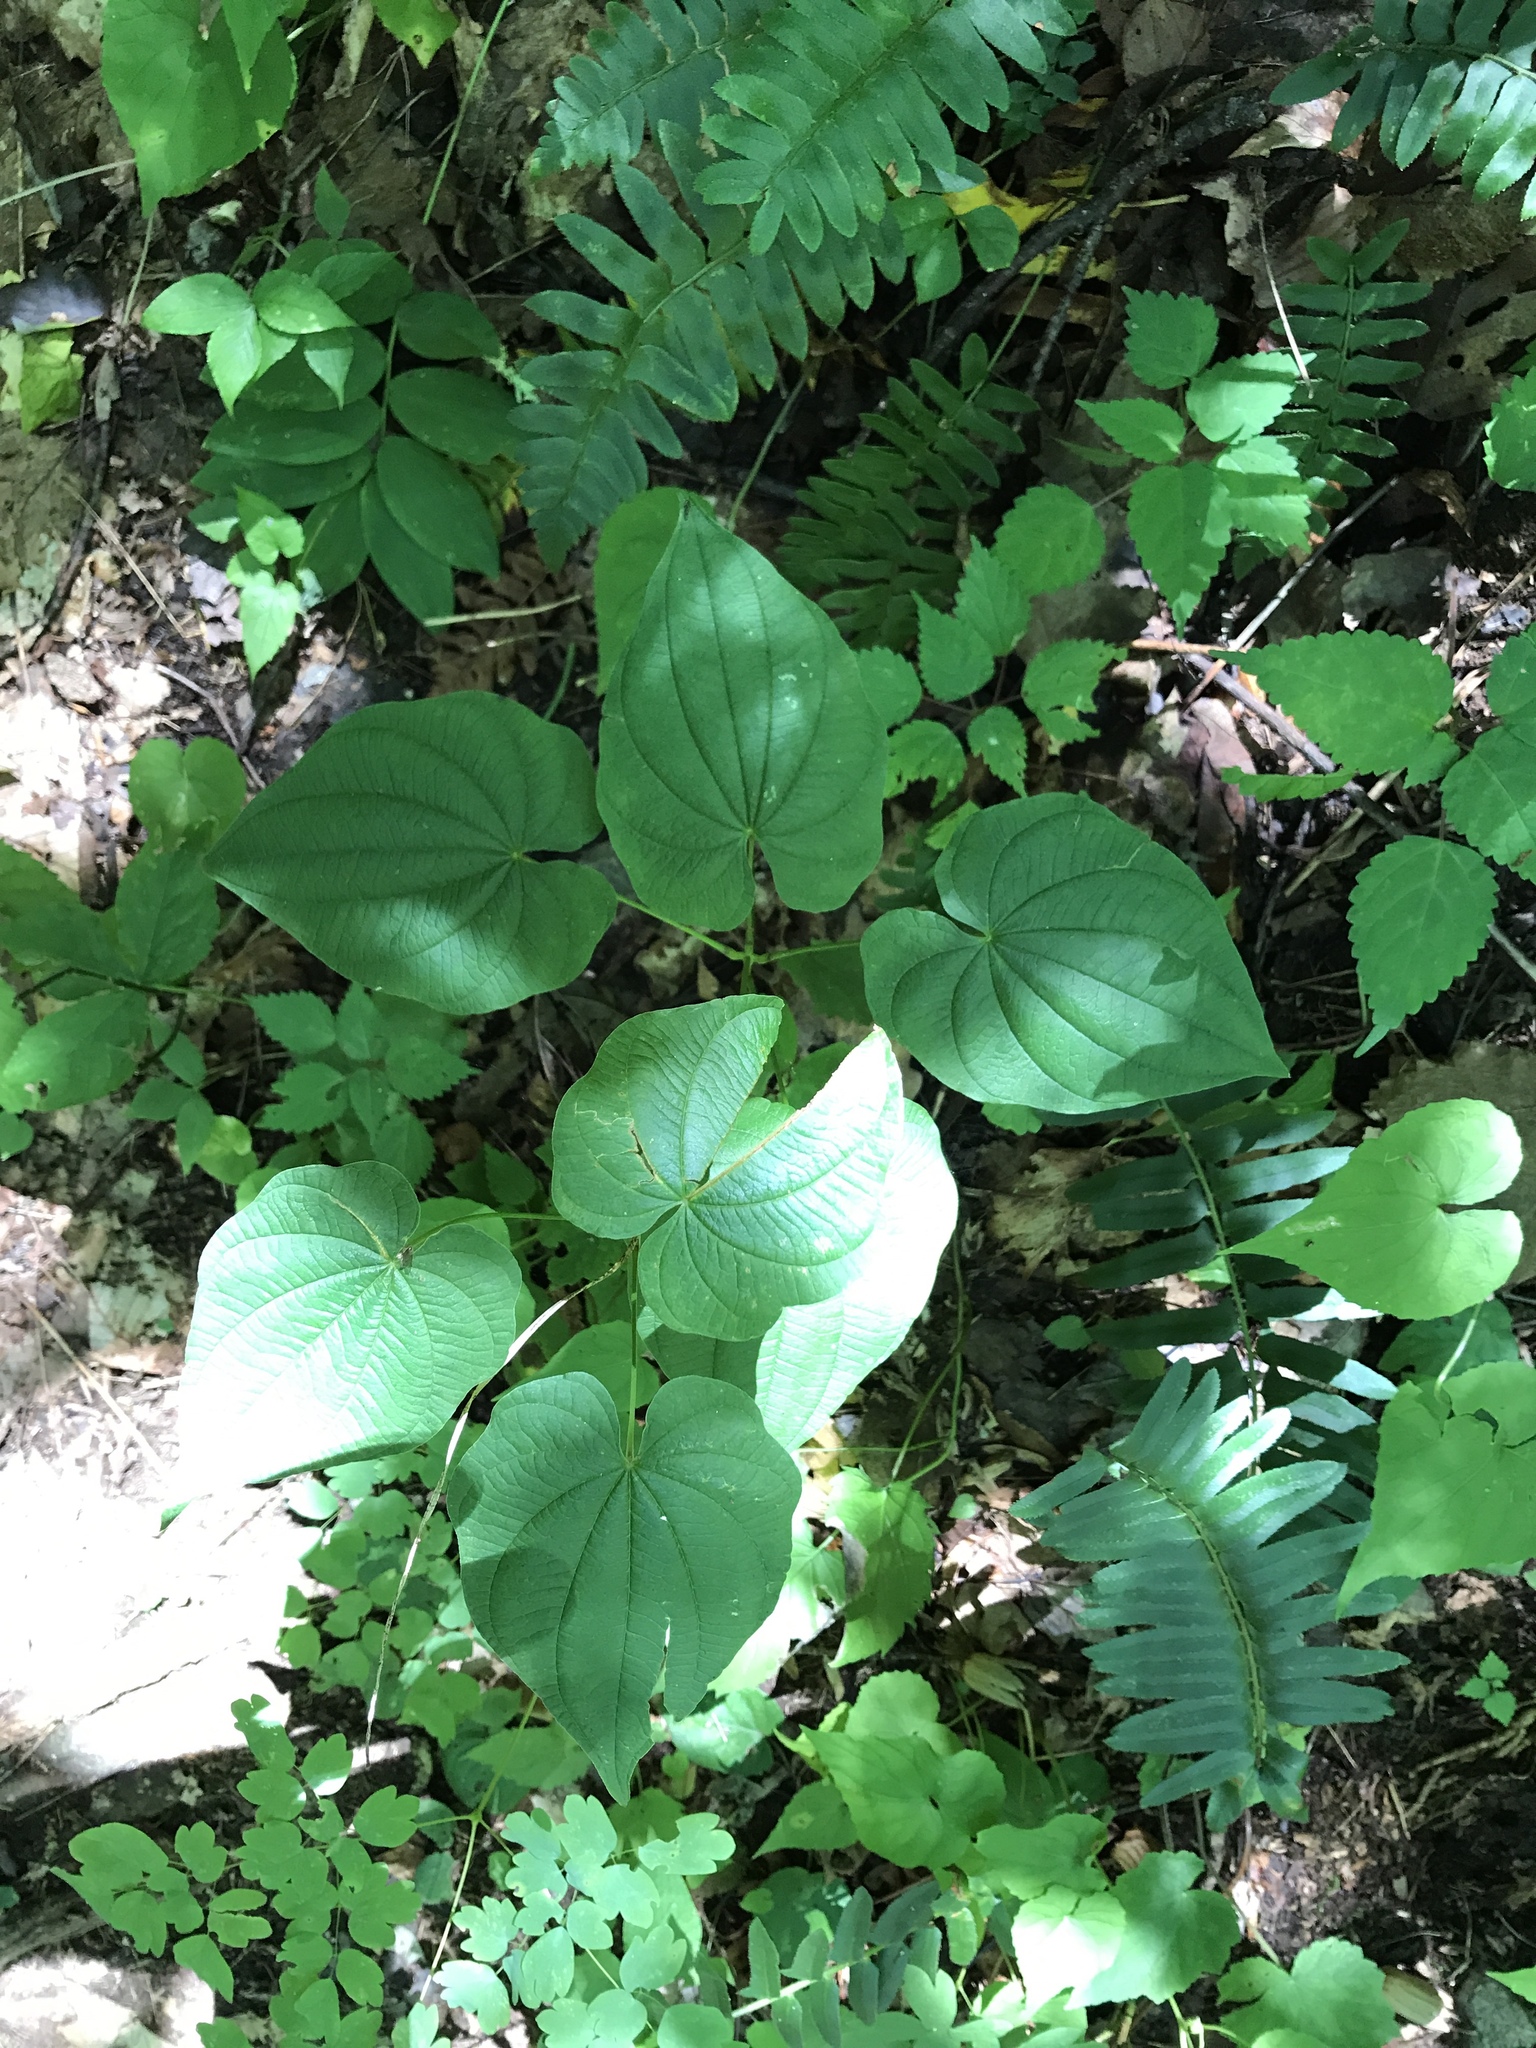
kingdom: Plantae
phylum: Tracheophyta
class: Liliopsida
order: Dioscoreales
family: Dioscoreaceae
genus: Dioscorea
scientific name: Dioscorea villosa
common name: Wild yam
